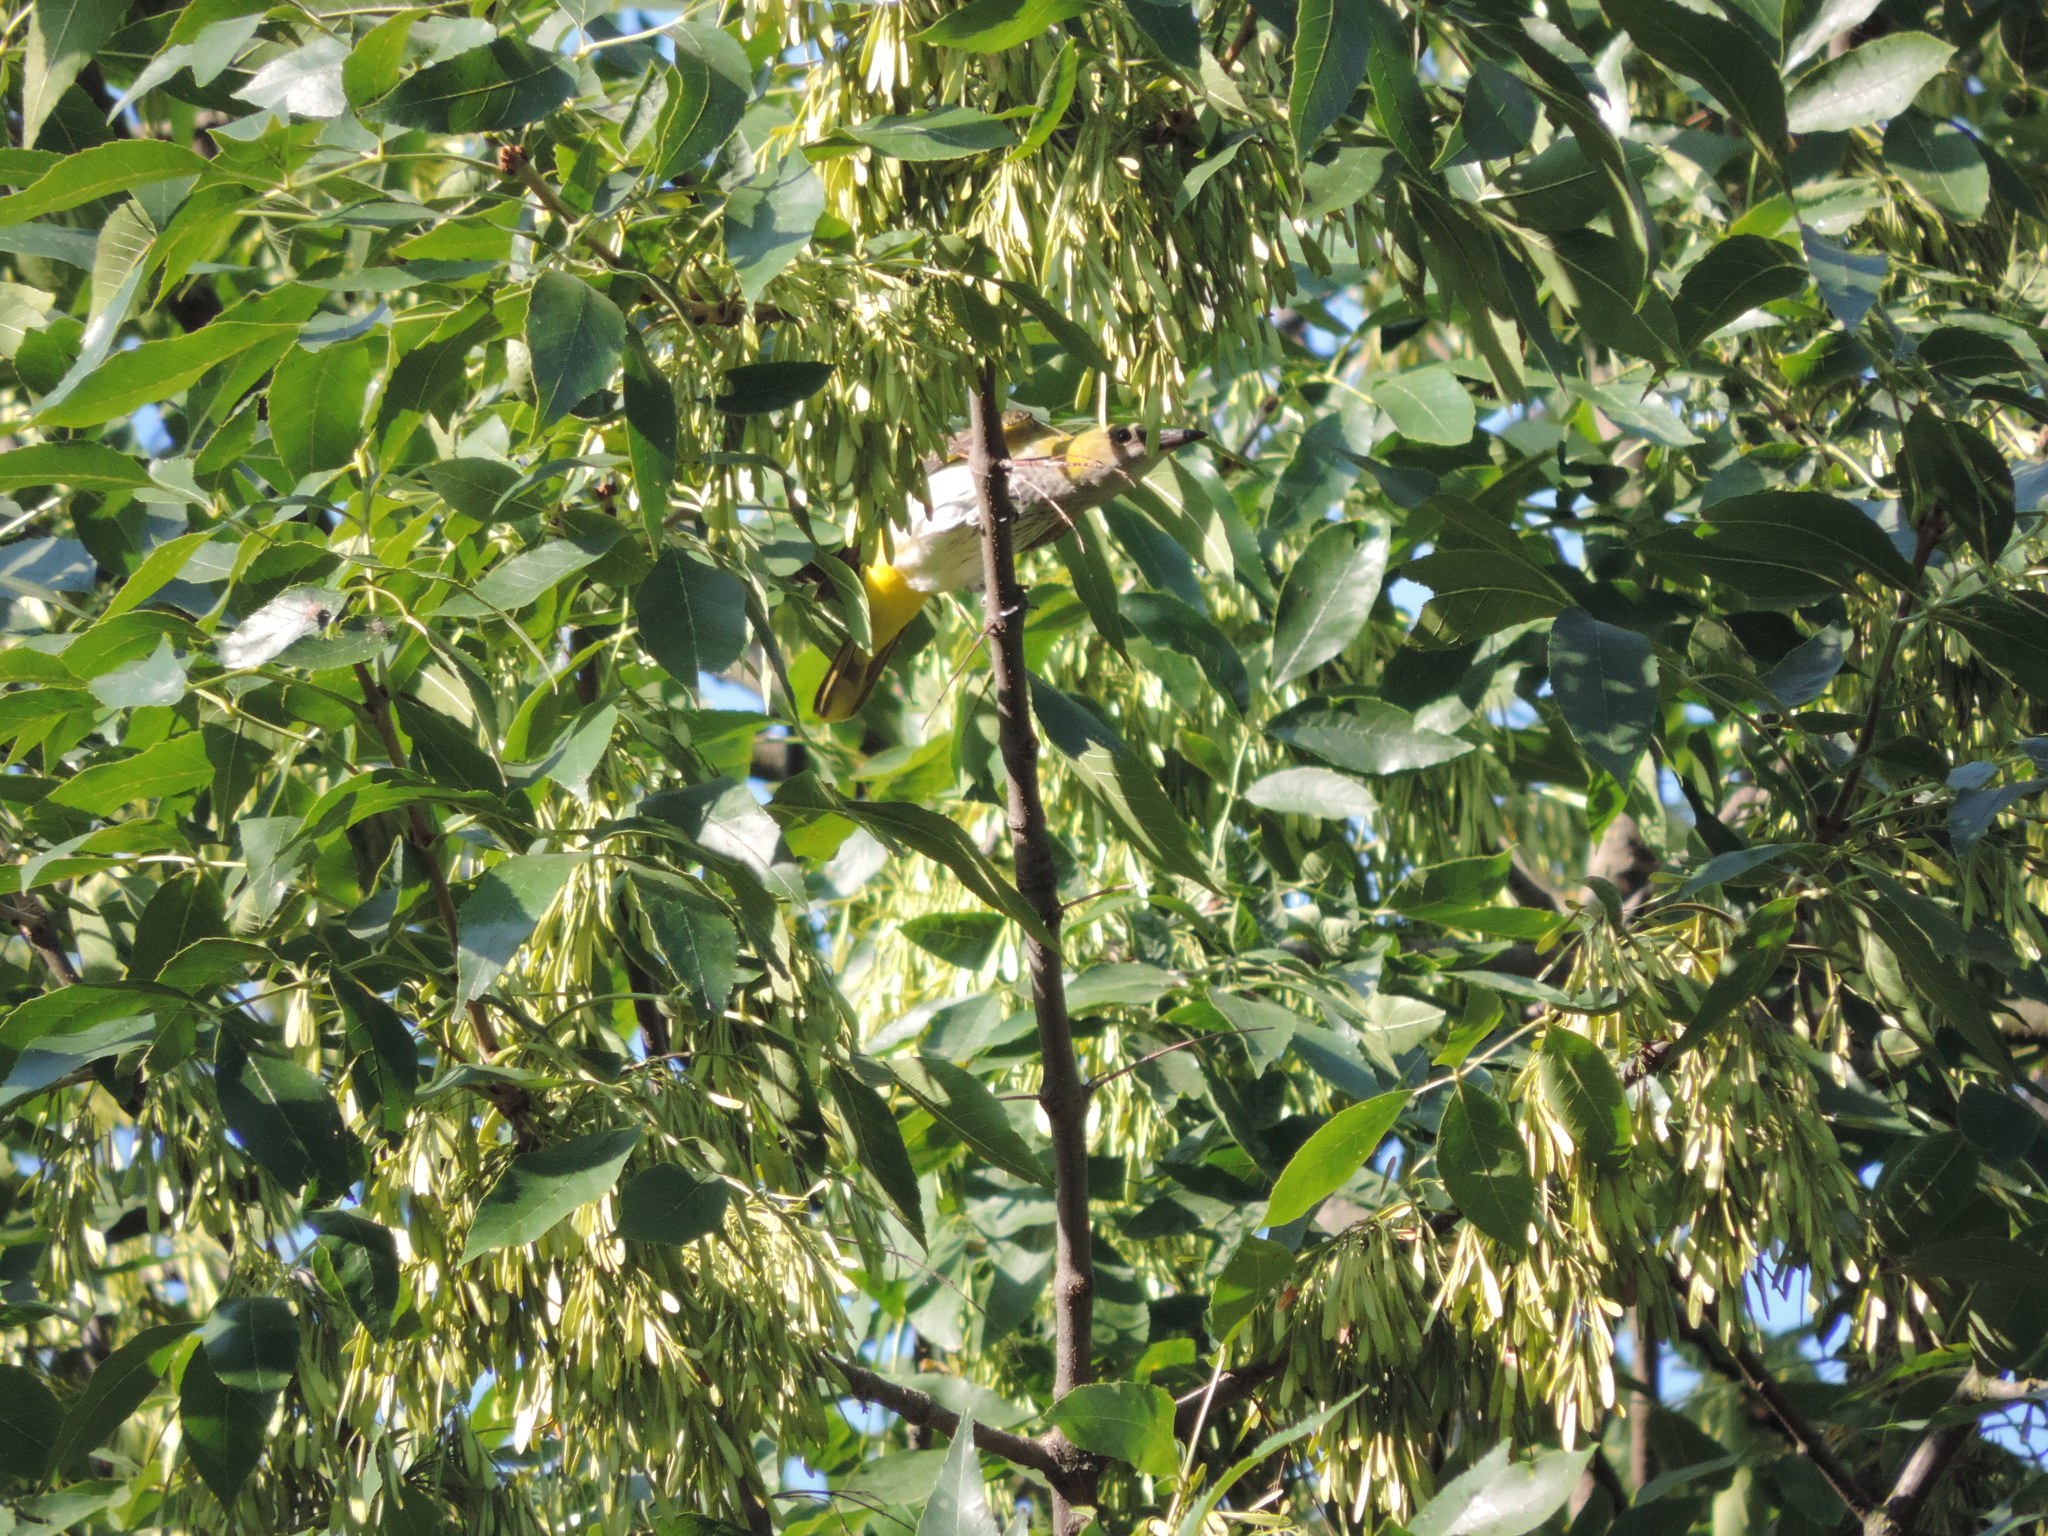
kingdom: Animalia
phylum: Chordata
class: Aves
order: Passeriformes
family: Oriolidae
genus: Oriolus
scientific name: Oriolus oriolus
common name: Eurasian golden oriole
